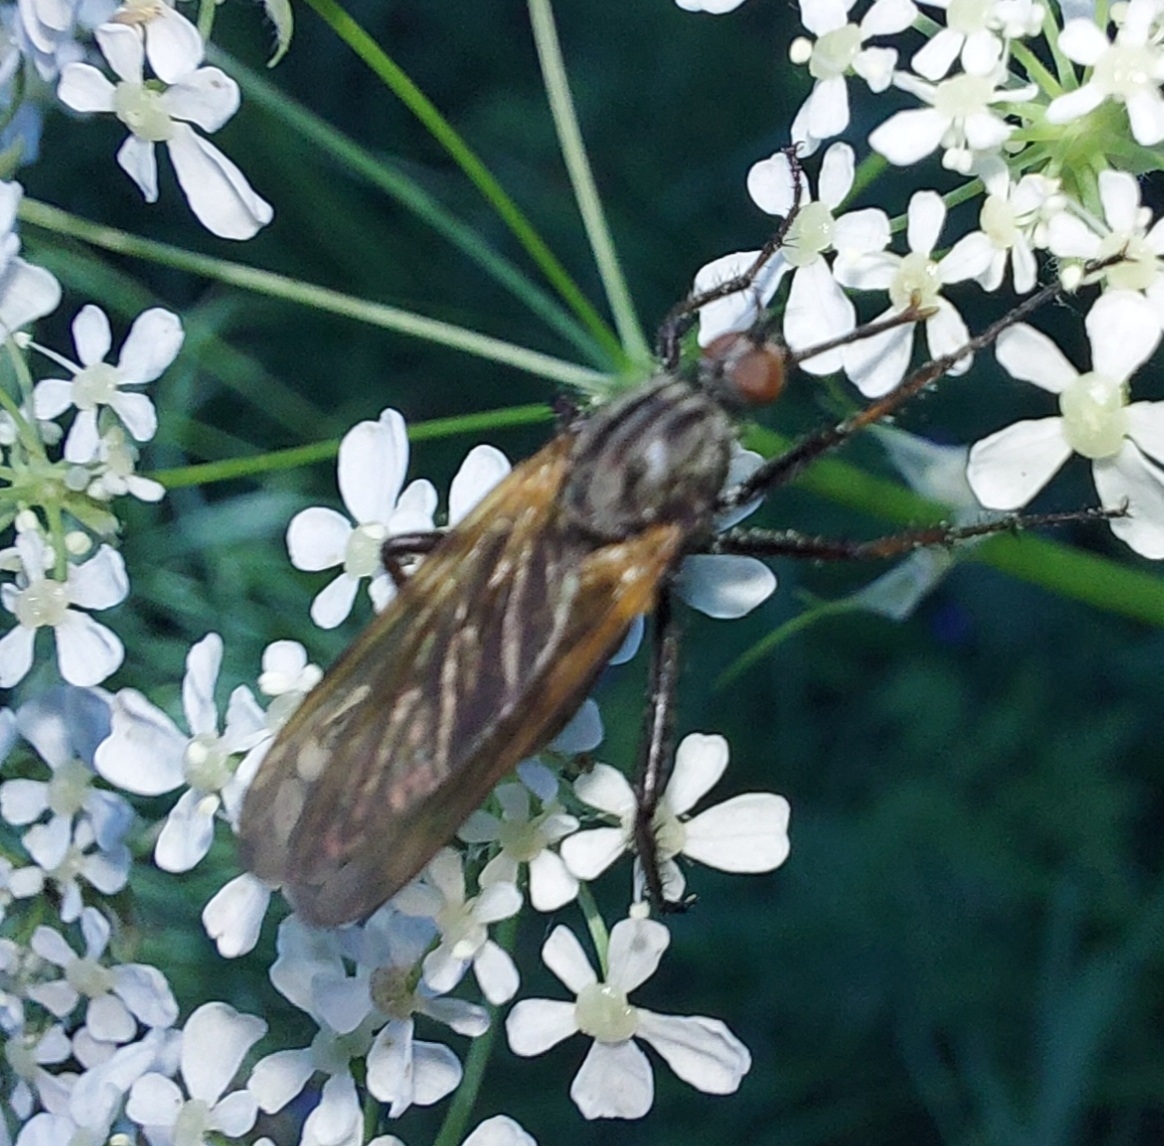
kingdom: Animalia
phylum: Arthropoda
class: Insecta
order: Diptera
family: Empididae
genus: Empis
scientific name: Empis tessellata
